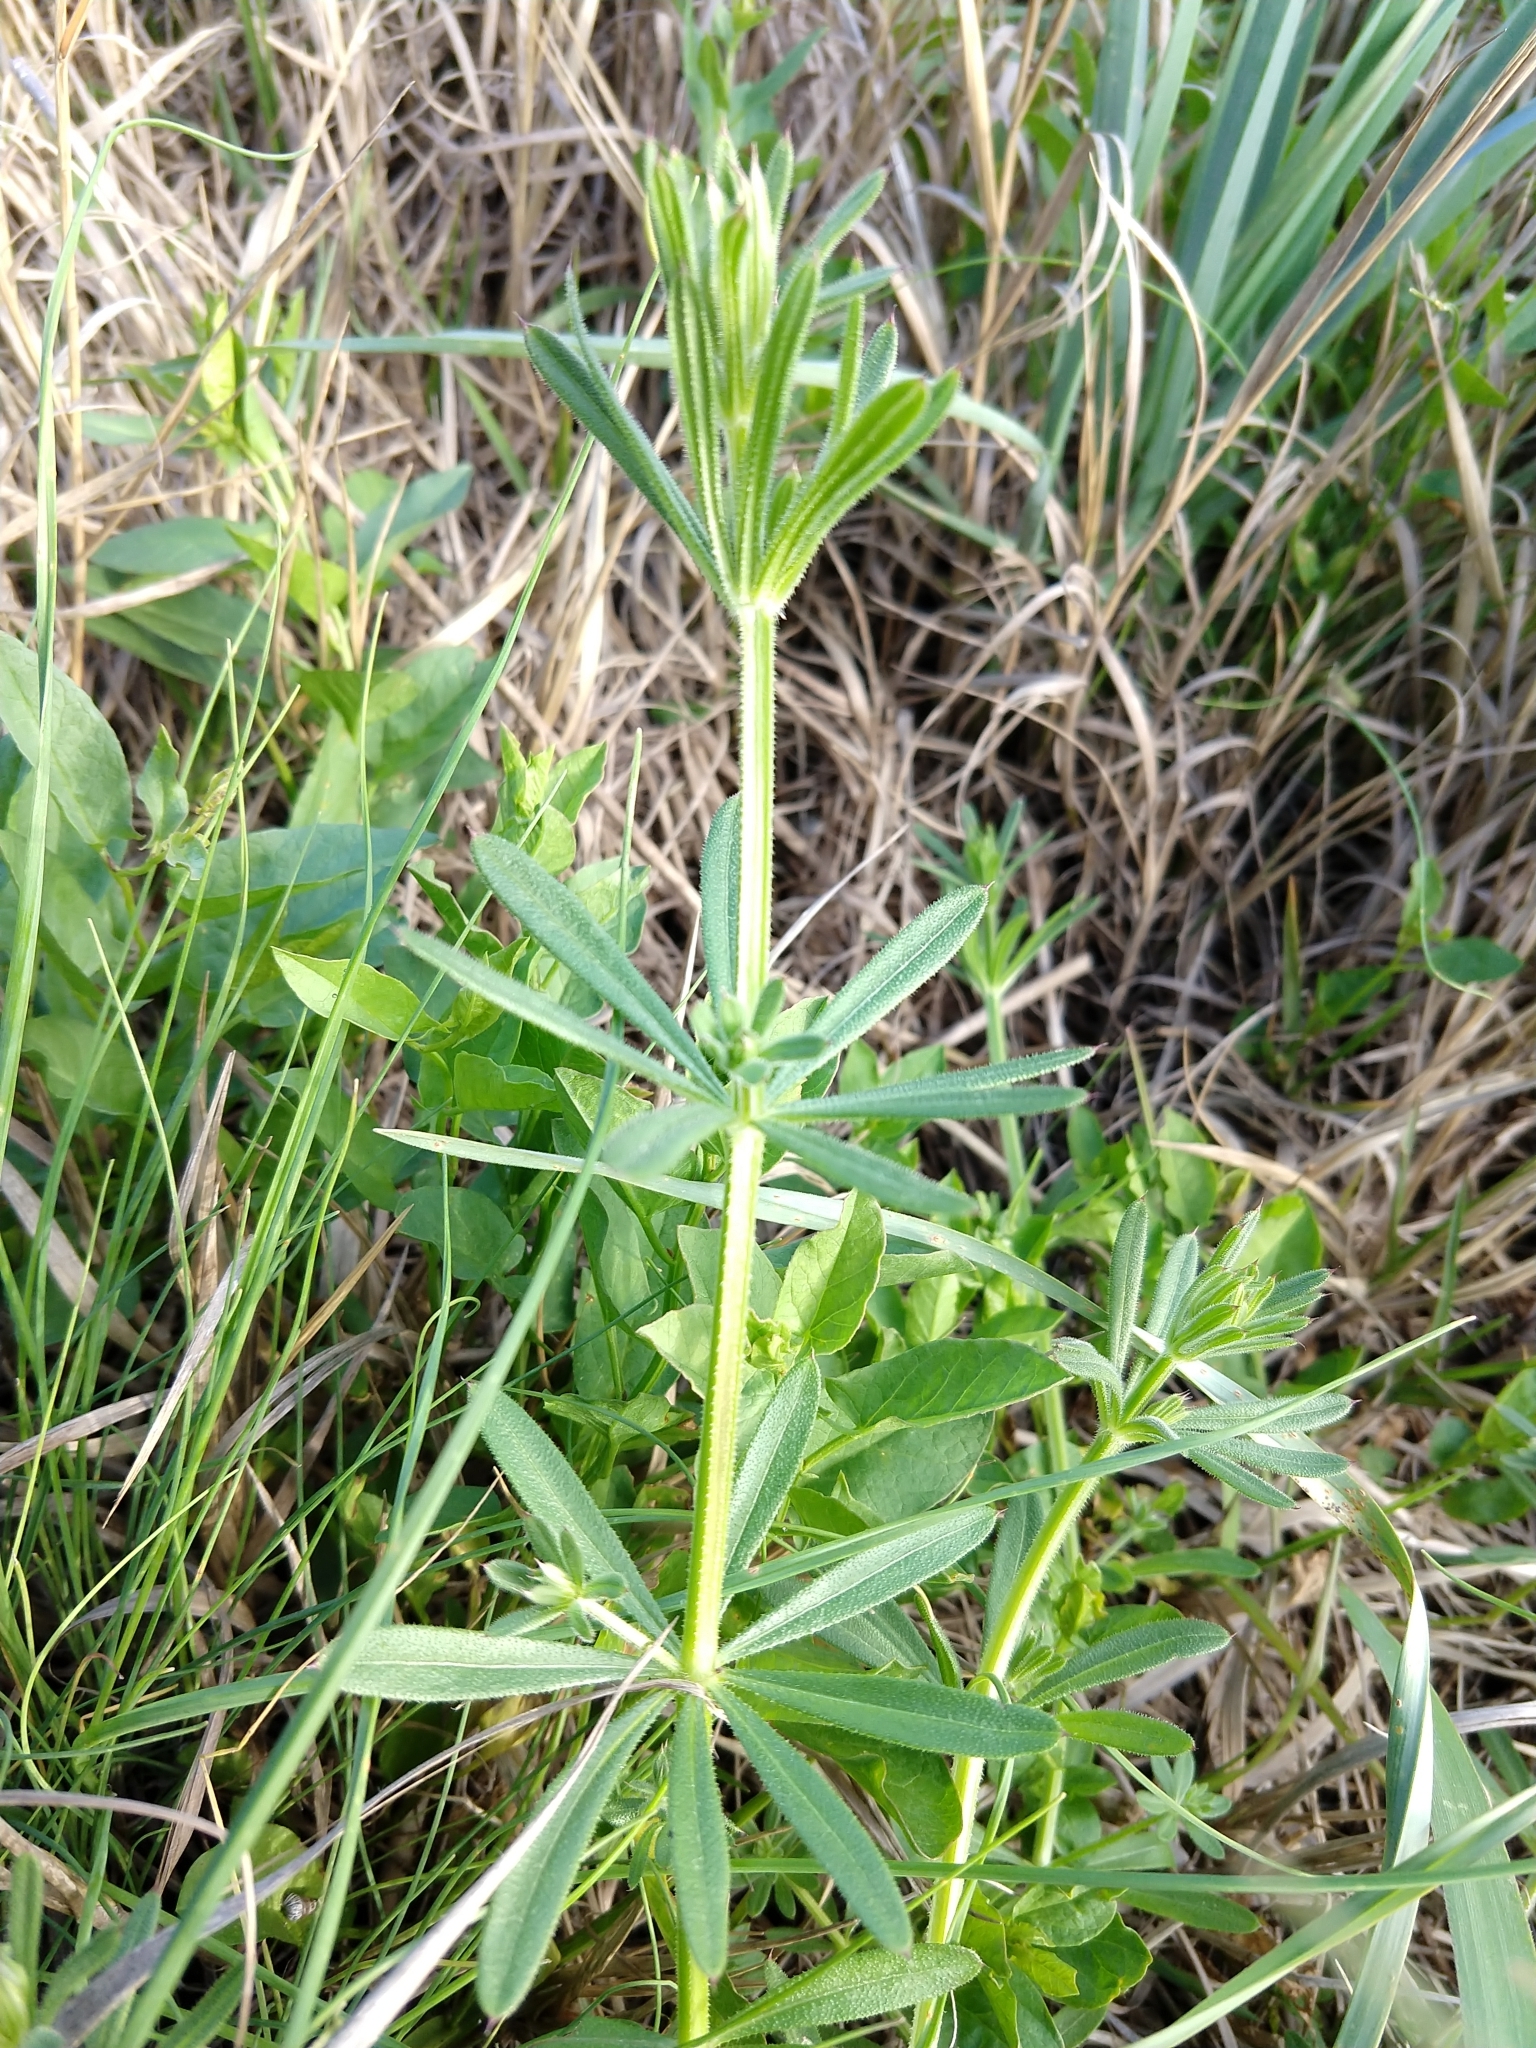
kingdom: Plantae
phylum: Tracheophyta
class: Magnoliopsida
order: Gentianales
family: Rubiaceae
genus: Galium
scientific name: Galium aparine
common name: Cleavers
